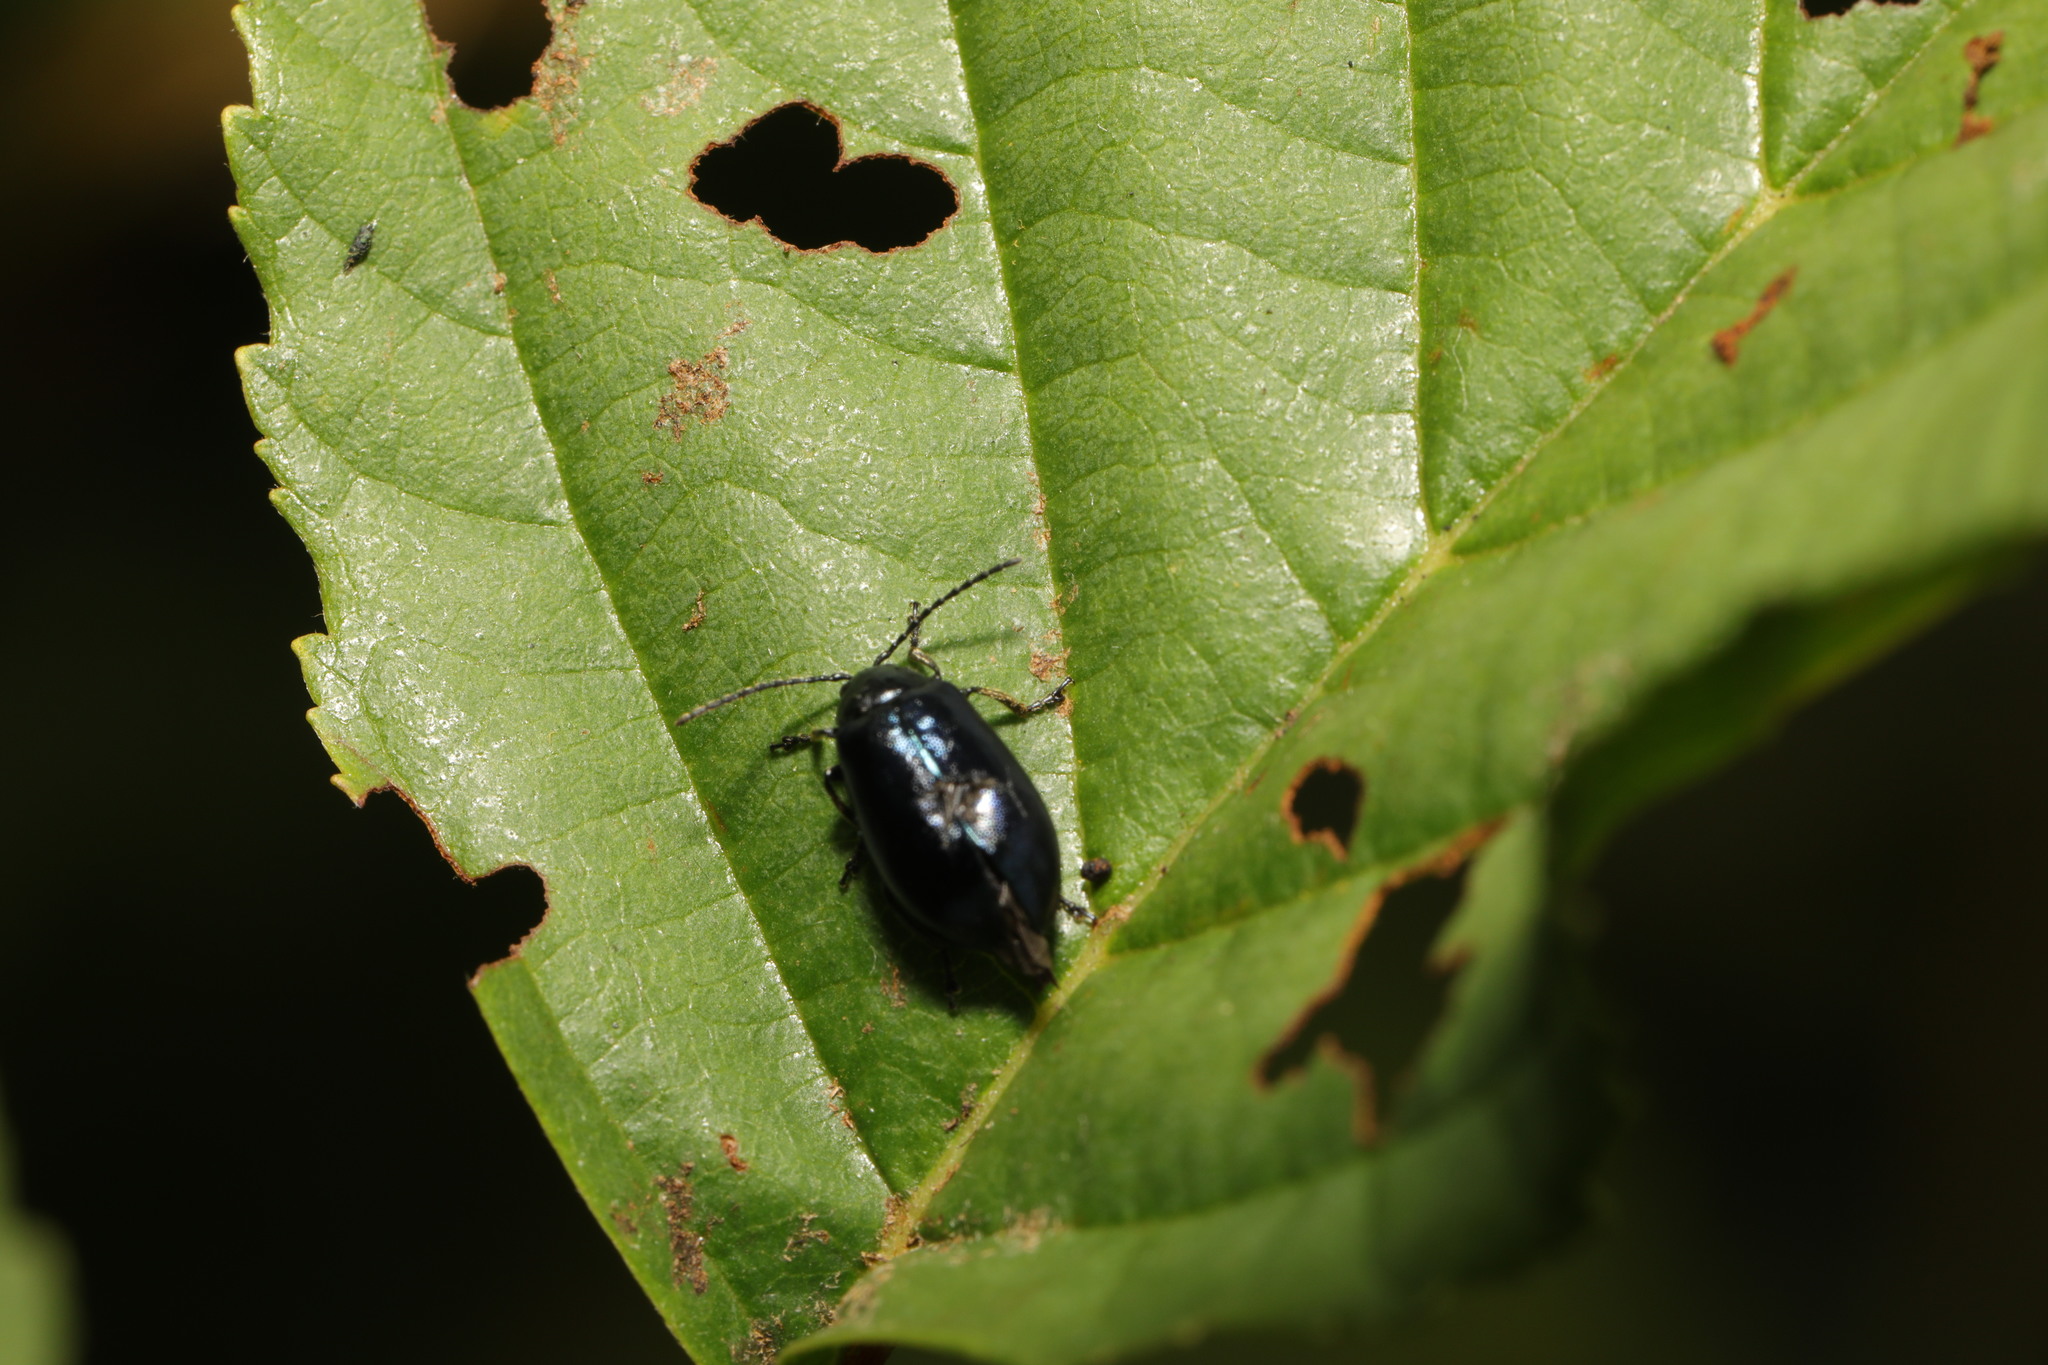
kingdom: Animalia
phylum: Arthropoda
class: Insecta
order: Coleoptera
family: Chrysomelidae
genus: Agelastica
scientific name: Agelastica alni
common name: Alder leaf beetle
